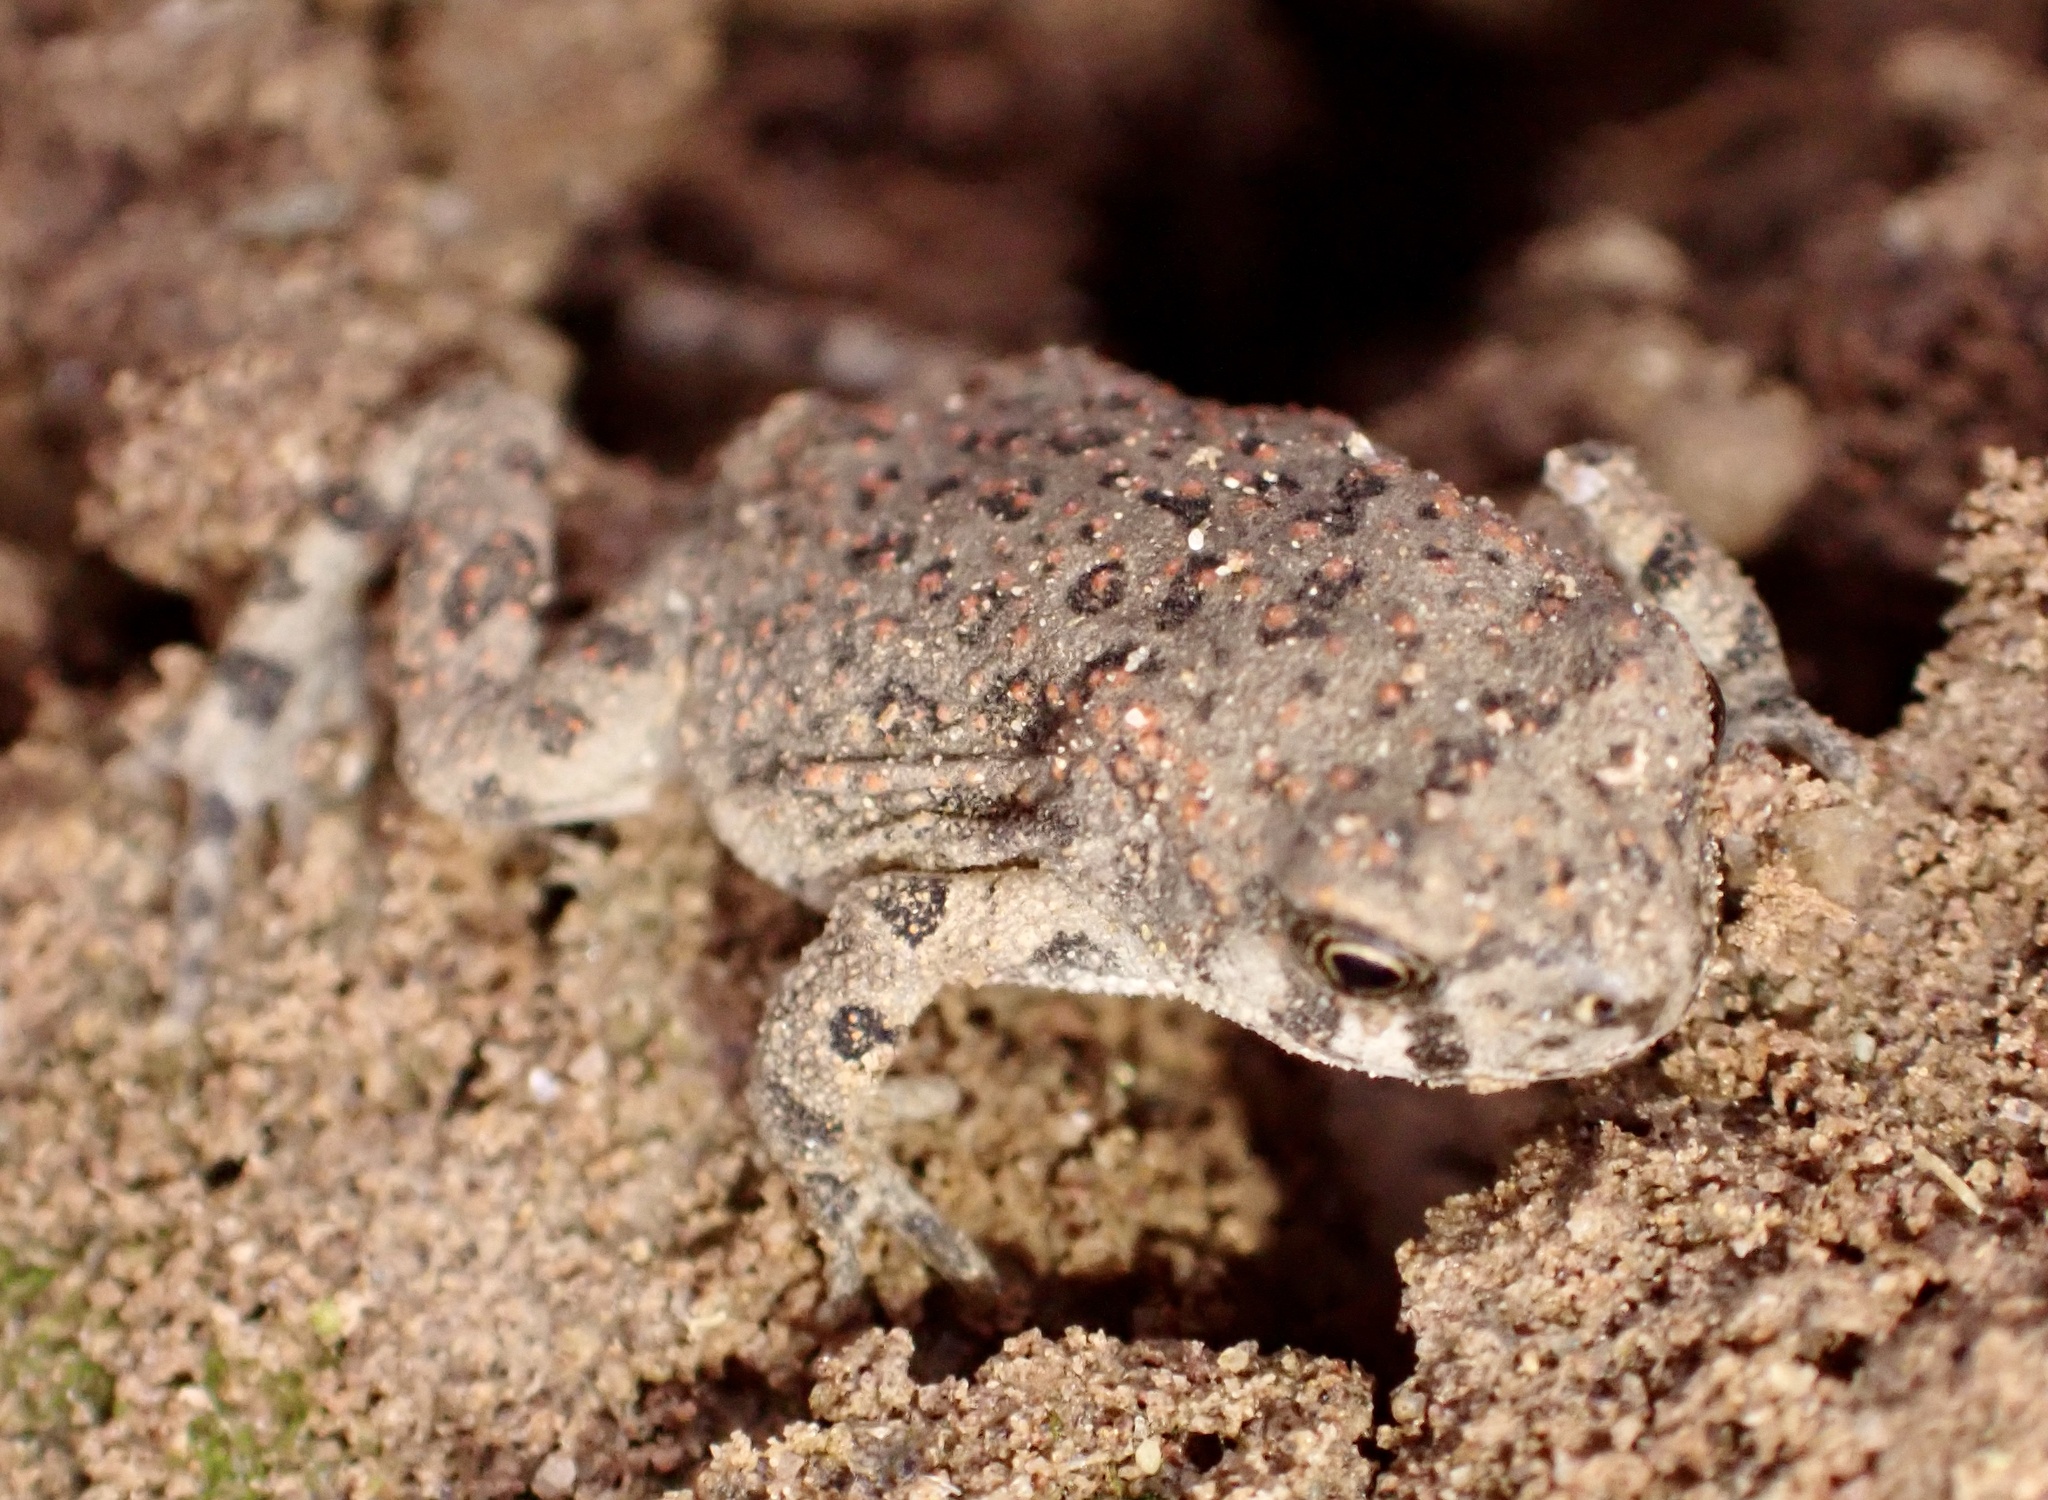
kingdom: Animalia
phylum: Chordata
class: Amphibia
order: Anura
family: Bufonidae
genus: Sclerophrys
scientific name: Sclerophrys mauritanica
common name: Berber toad
